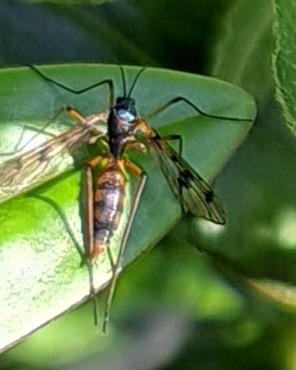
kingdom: Animalia
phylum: Arthropoda
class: Insecta
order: Diptera
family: Ptychopteridae
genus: Ptychoptera
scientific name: Ptychoptera contaminata
